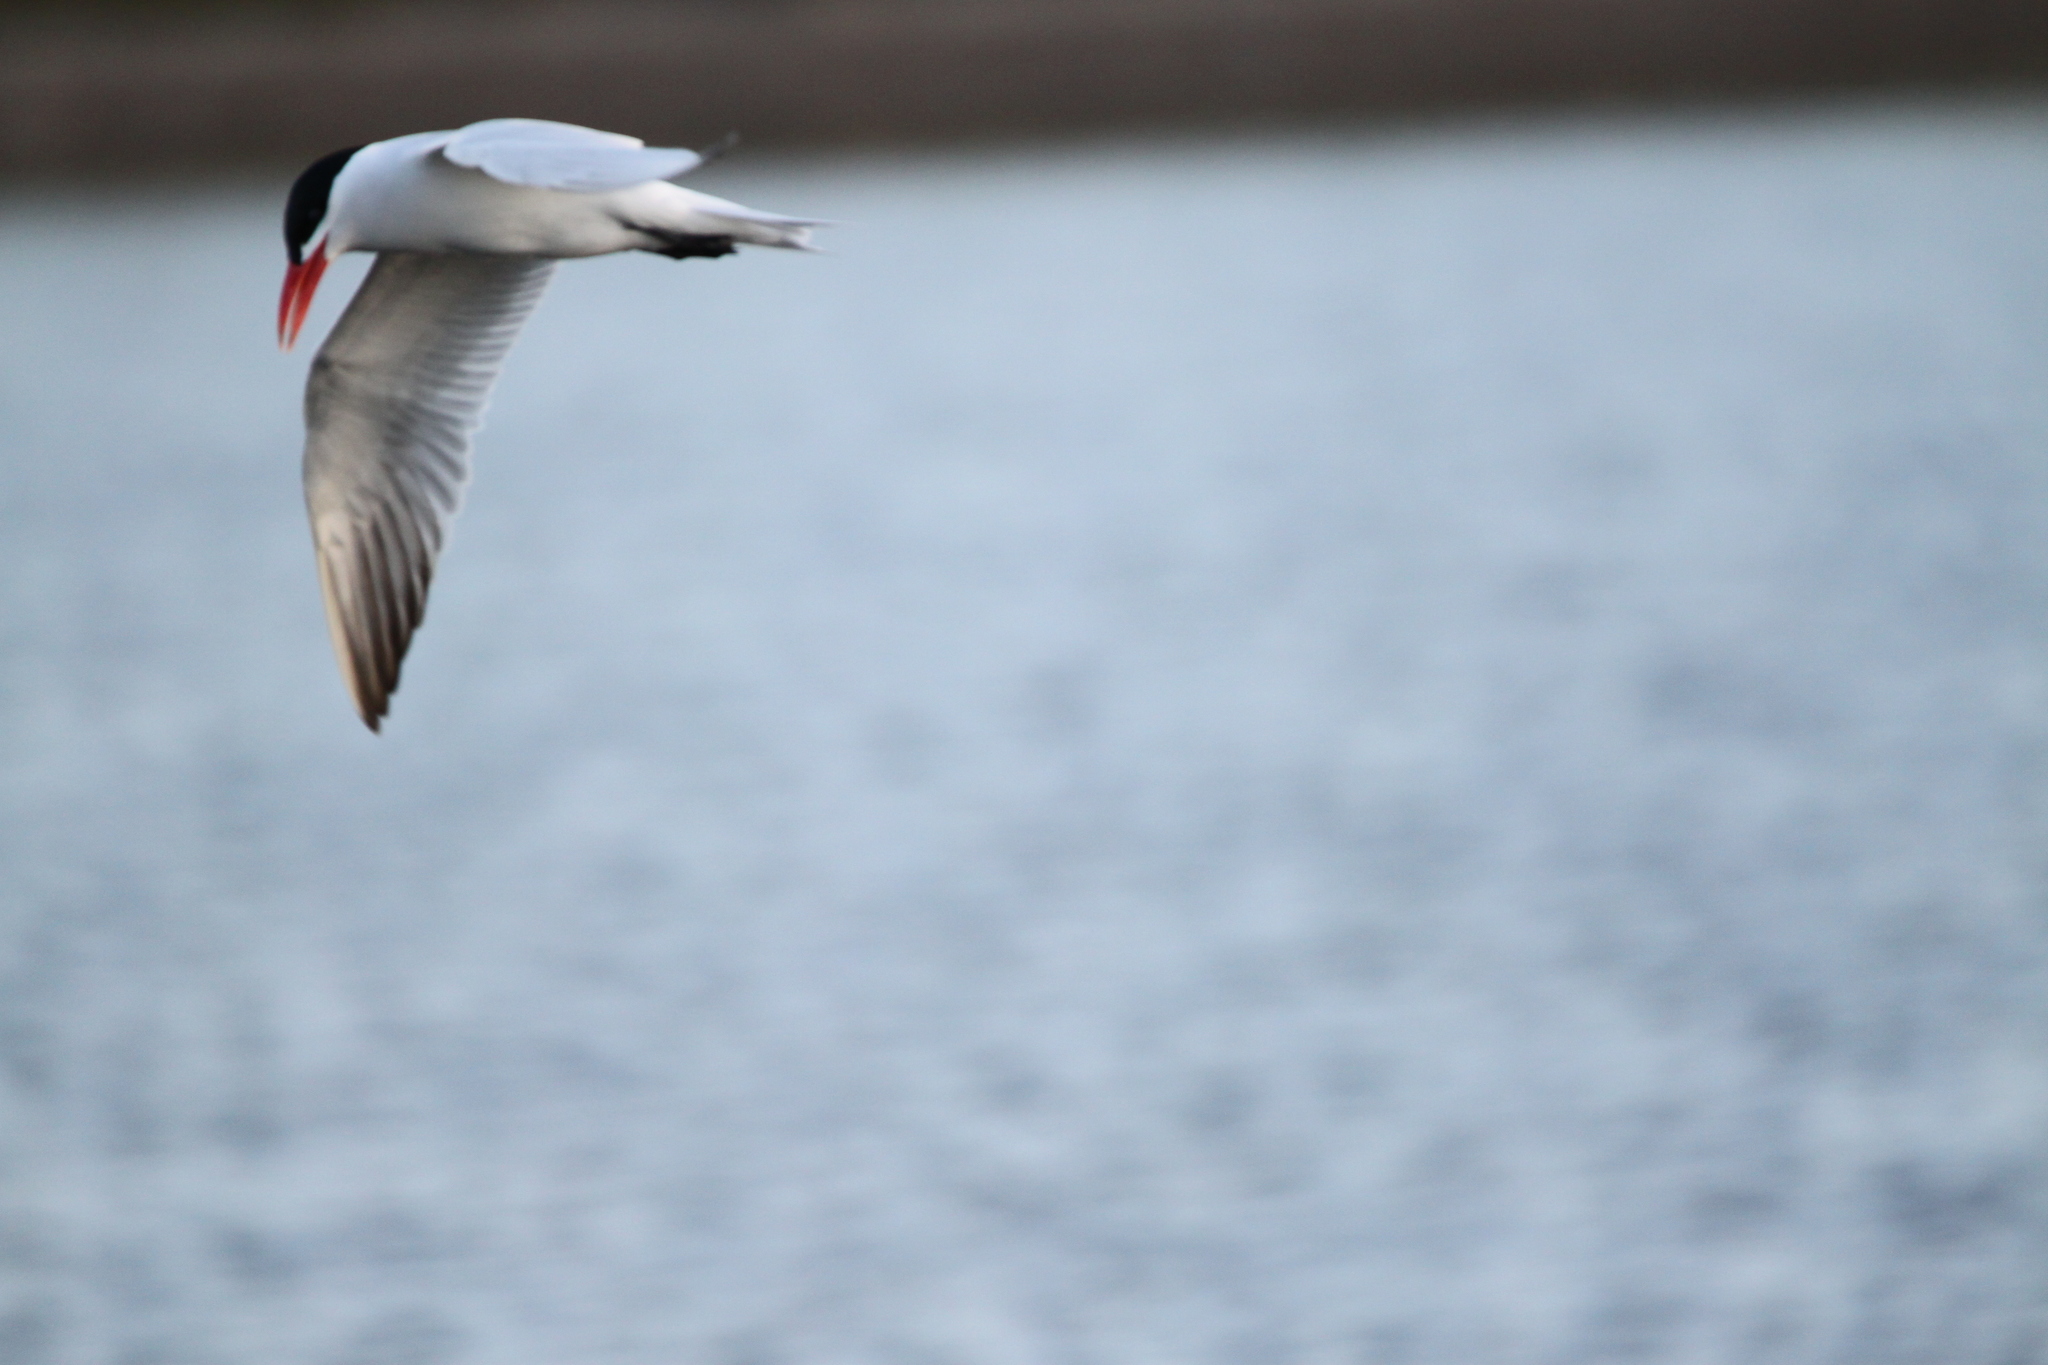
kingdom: Animalia
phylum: Chordata
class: Aves
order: Charadriiformes
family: Laridae
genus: Hydroprogne
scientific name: Hydroprogne caspia
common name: Caspian tern
